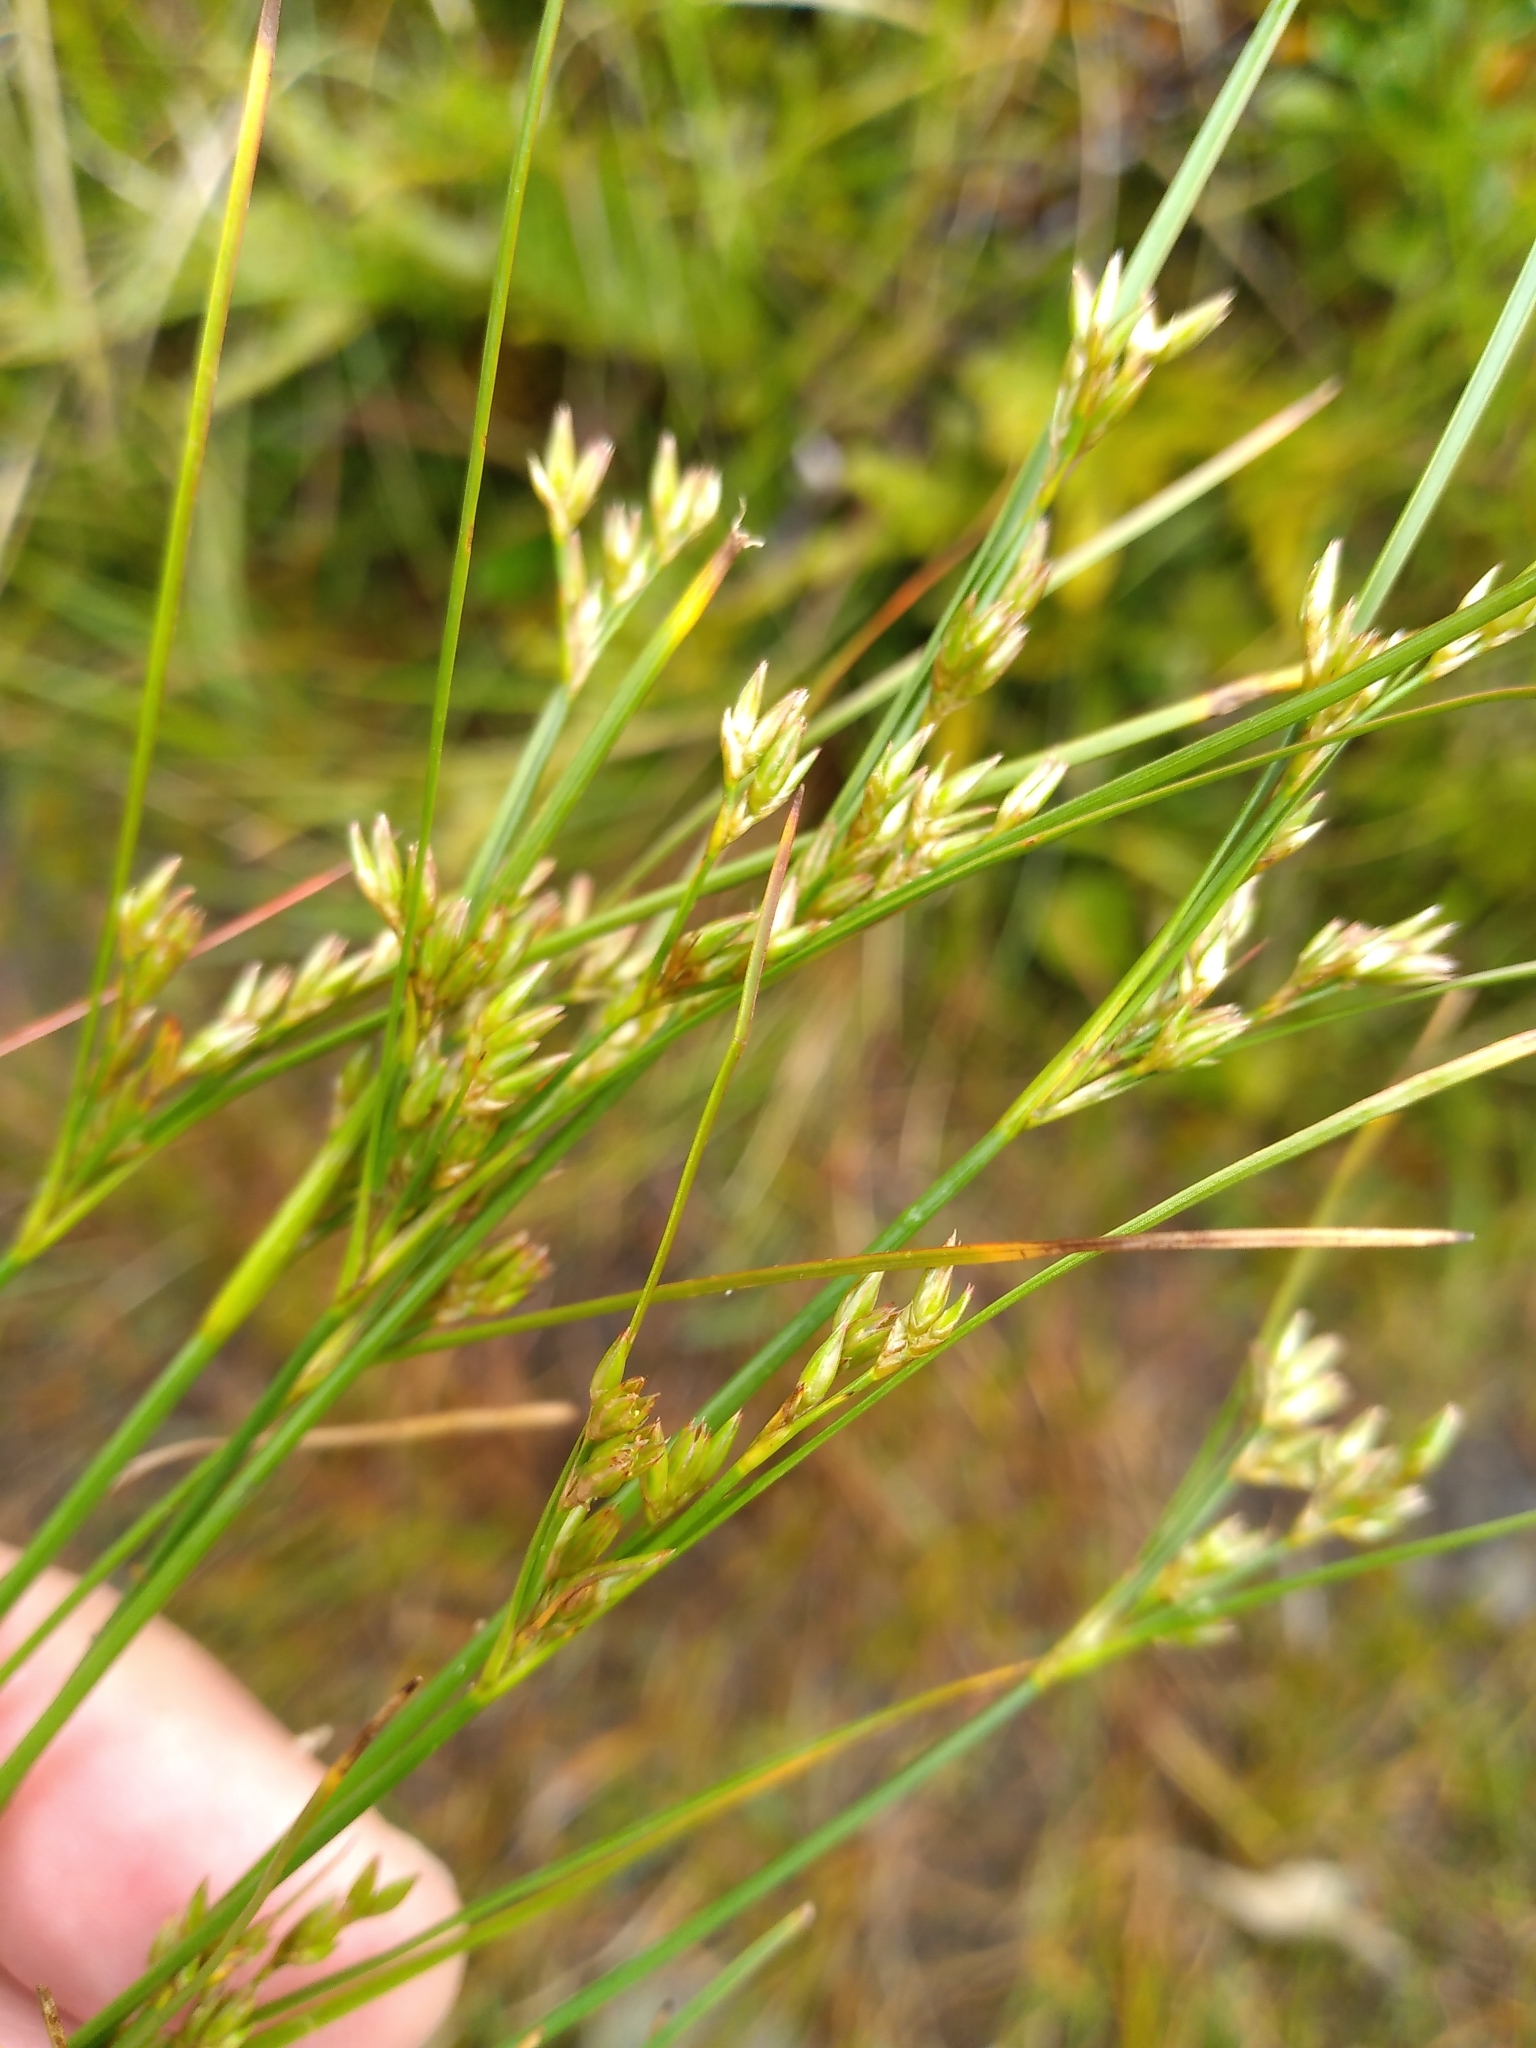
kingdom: Plantae
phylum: Tracheophyta
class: Liliopsida
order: Poales
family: Juncaceae
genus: Juncus
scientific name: Juncus tenuis
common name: Slender rush
